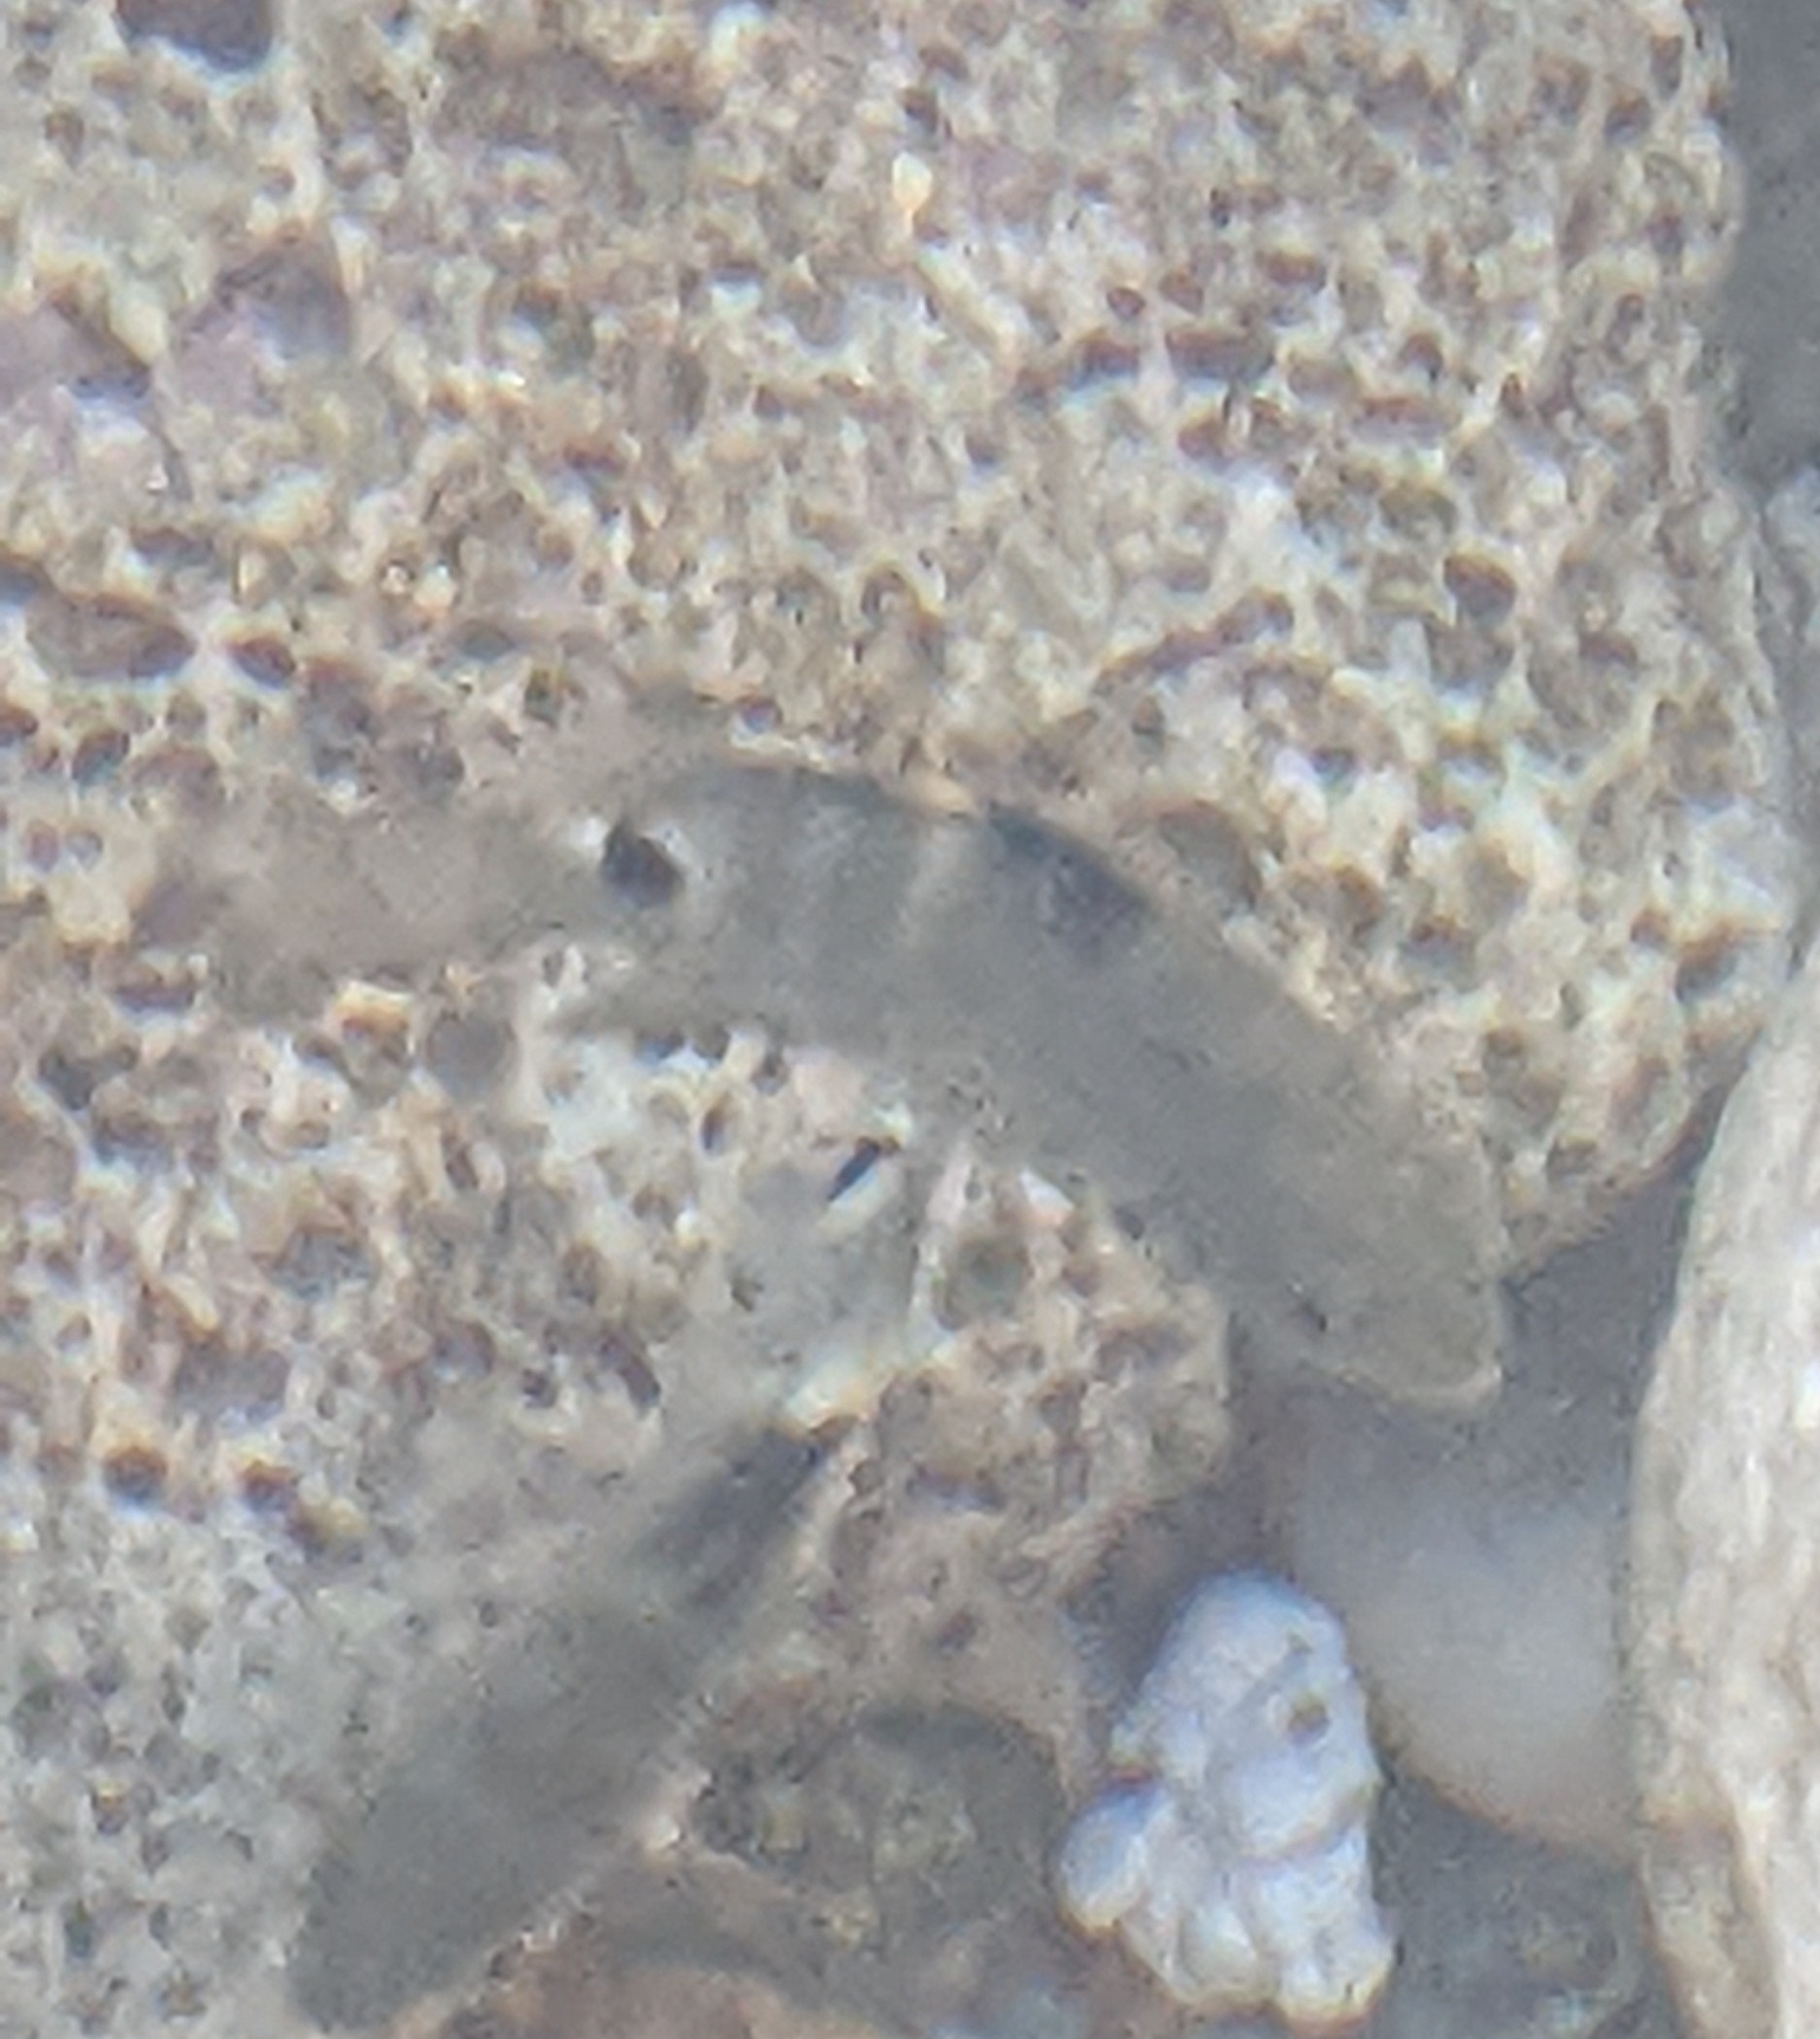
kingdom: Animalia
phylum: Chordata
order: Perciformes
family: Pomacentridae
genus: Abudefduf
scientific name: Abudefduf sordidus
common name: Blackspot sergeant
